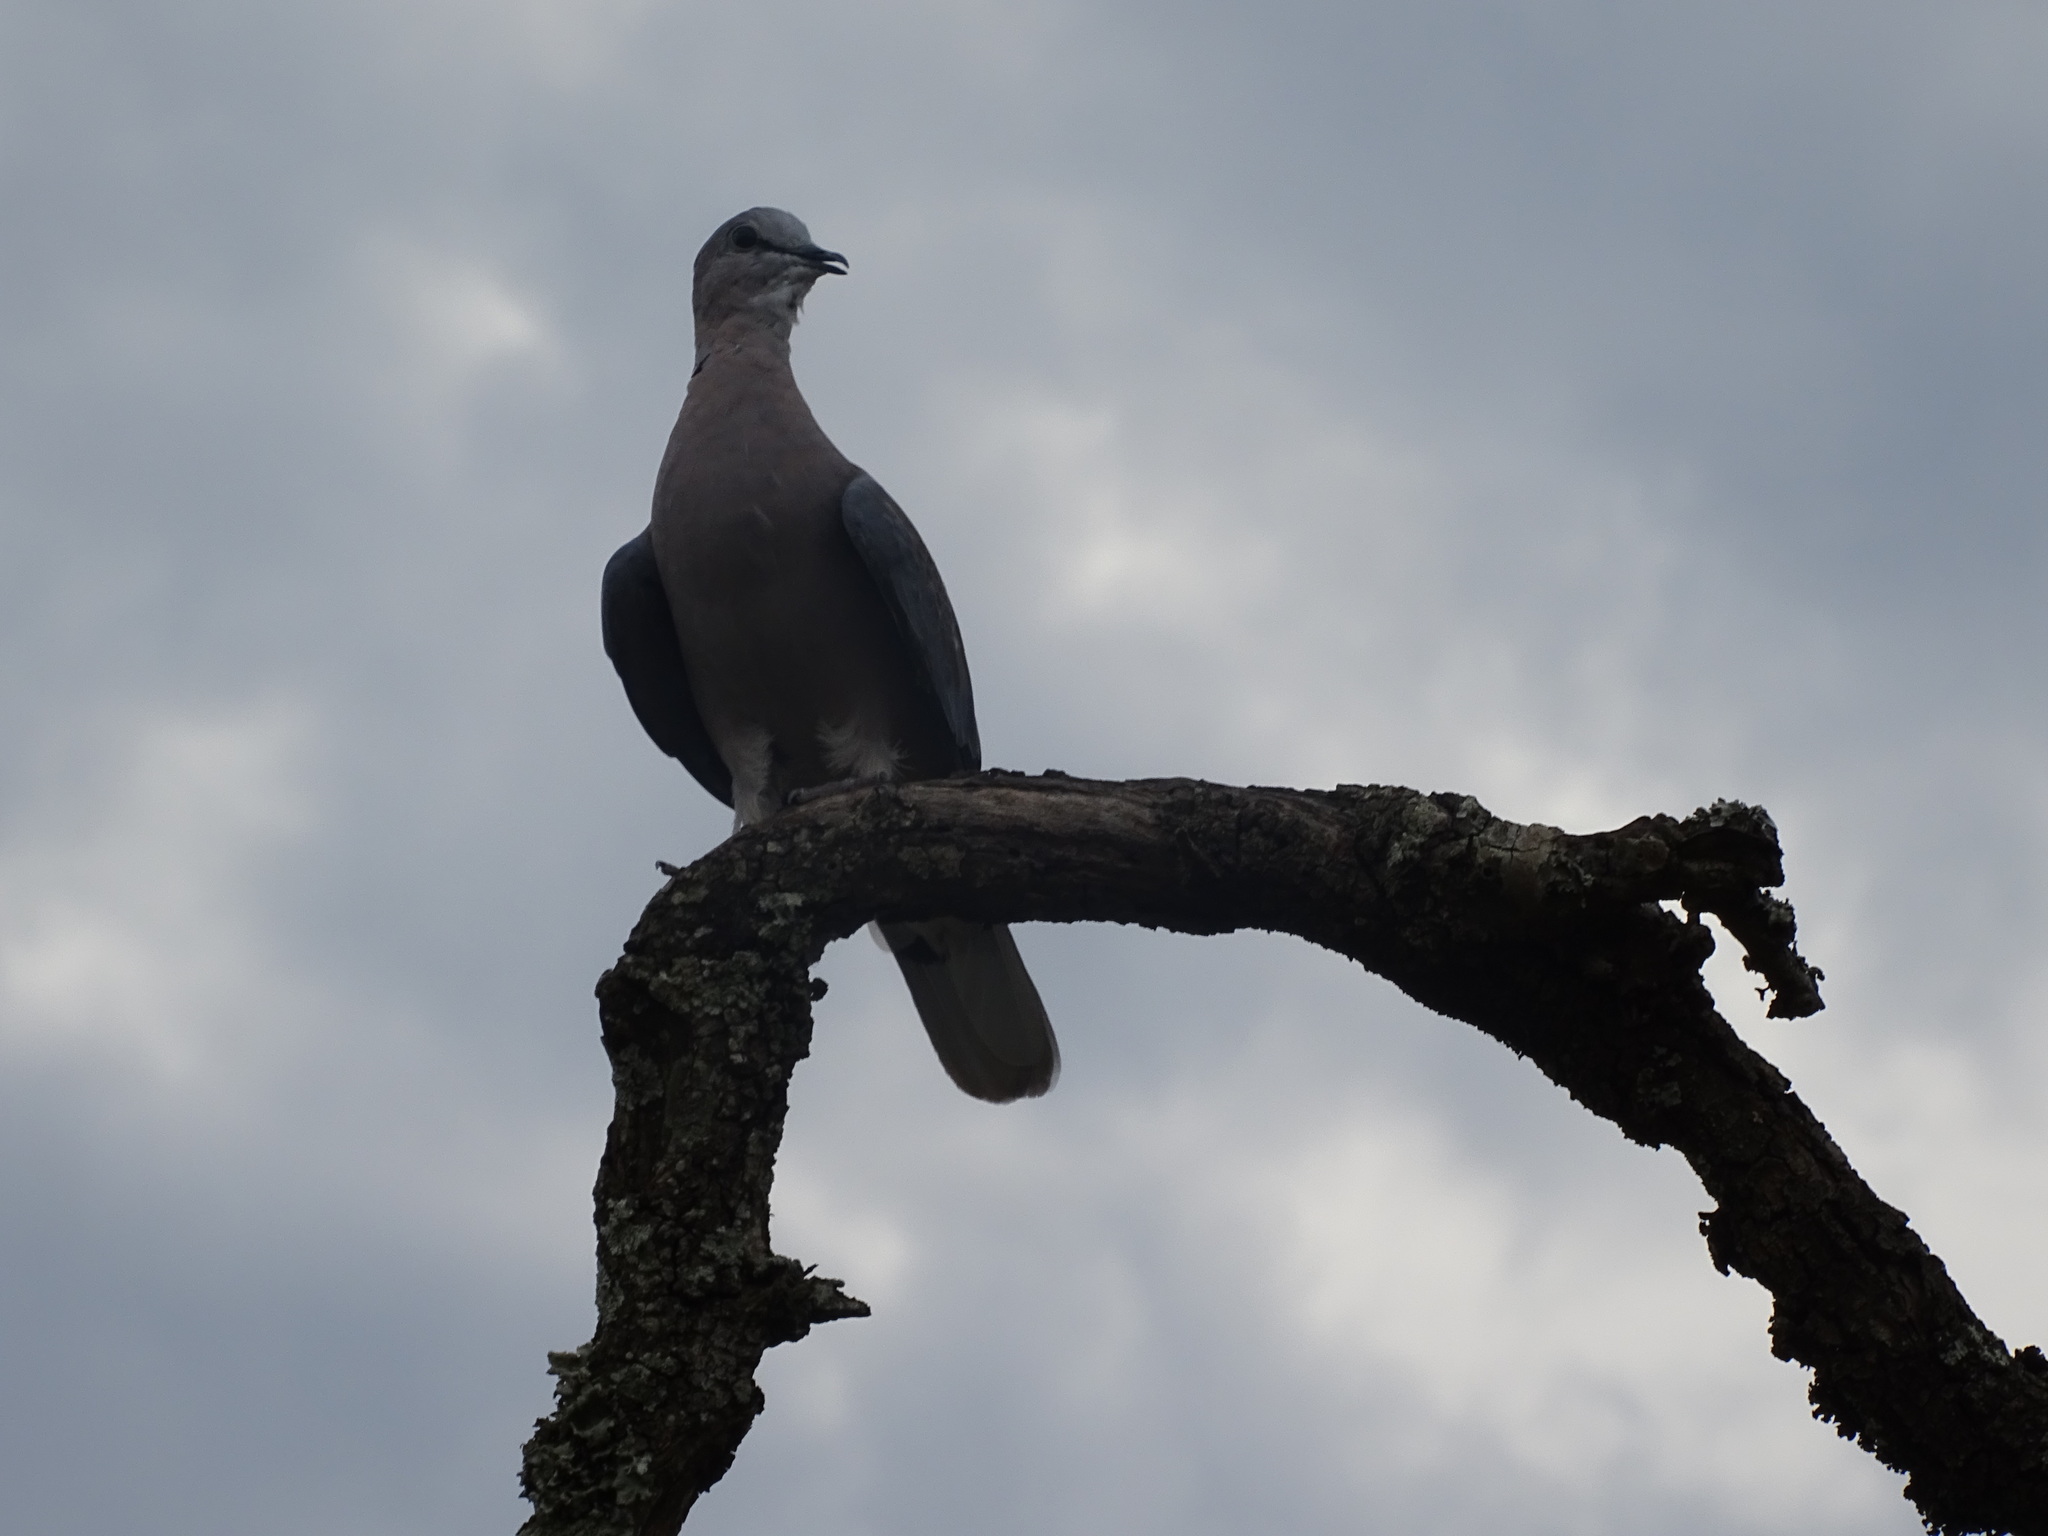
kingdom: Animalia
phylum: Chordata
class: Aves
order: Columbiformes
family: Columbidae
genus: Streptopelia
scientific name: Streptopelia semitorquata
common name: Red-eyed dove
